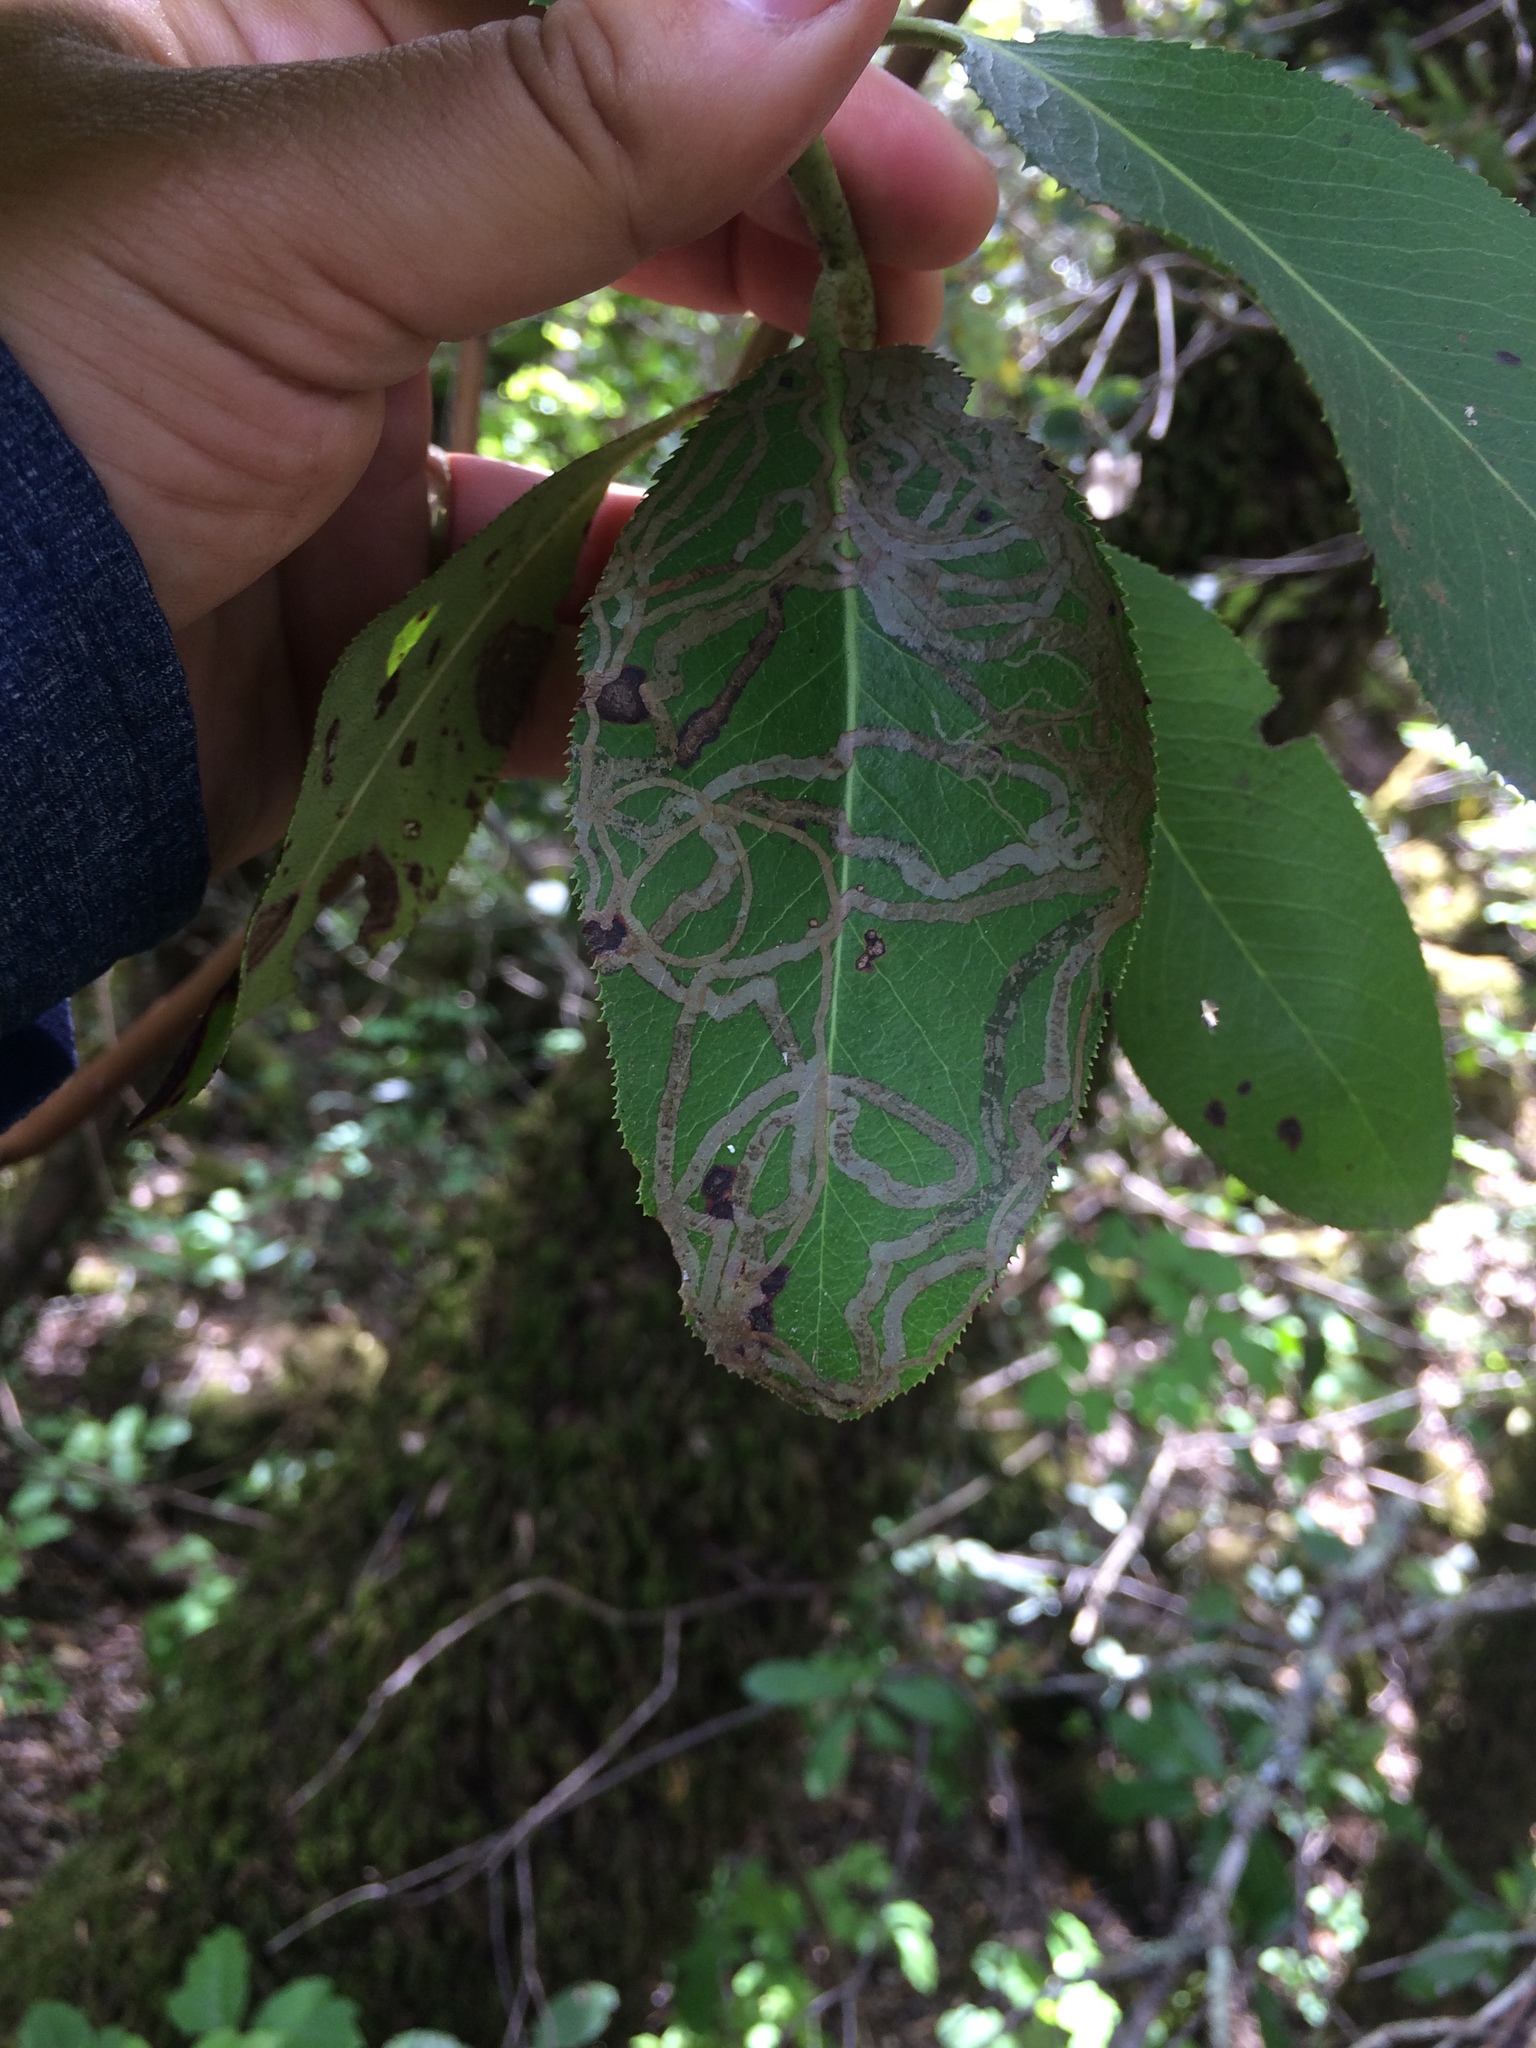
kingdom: Animalia
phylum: Arthropoda
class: Insecta
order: Lepidoptera
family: Gracillariidae
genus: Marmara
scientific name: Marmara arbutiella
